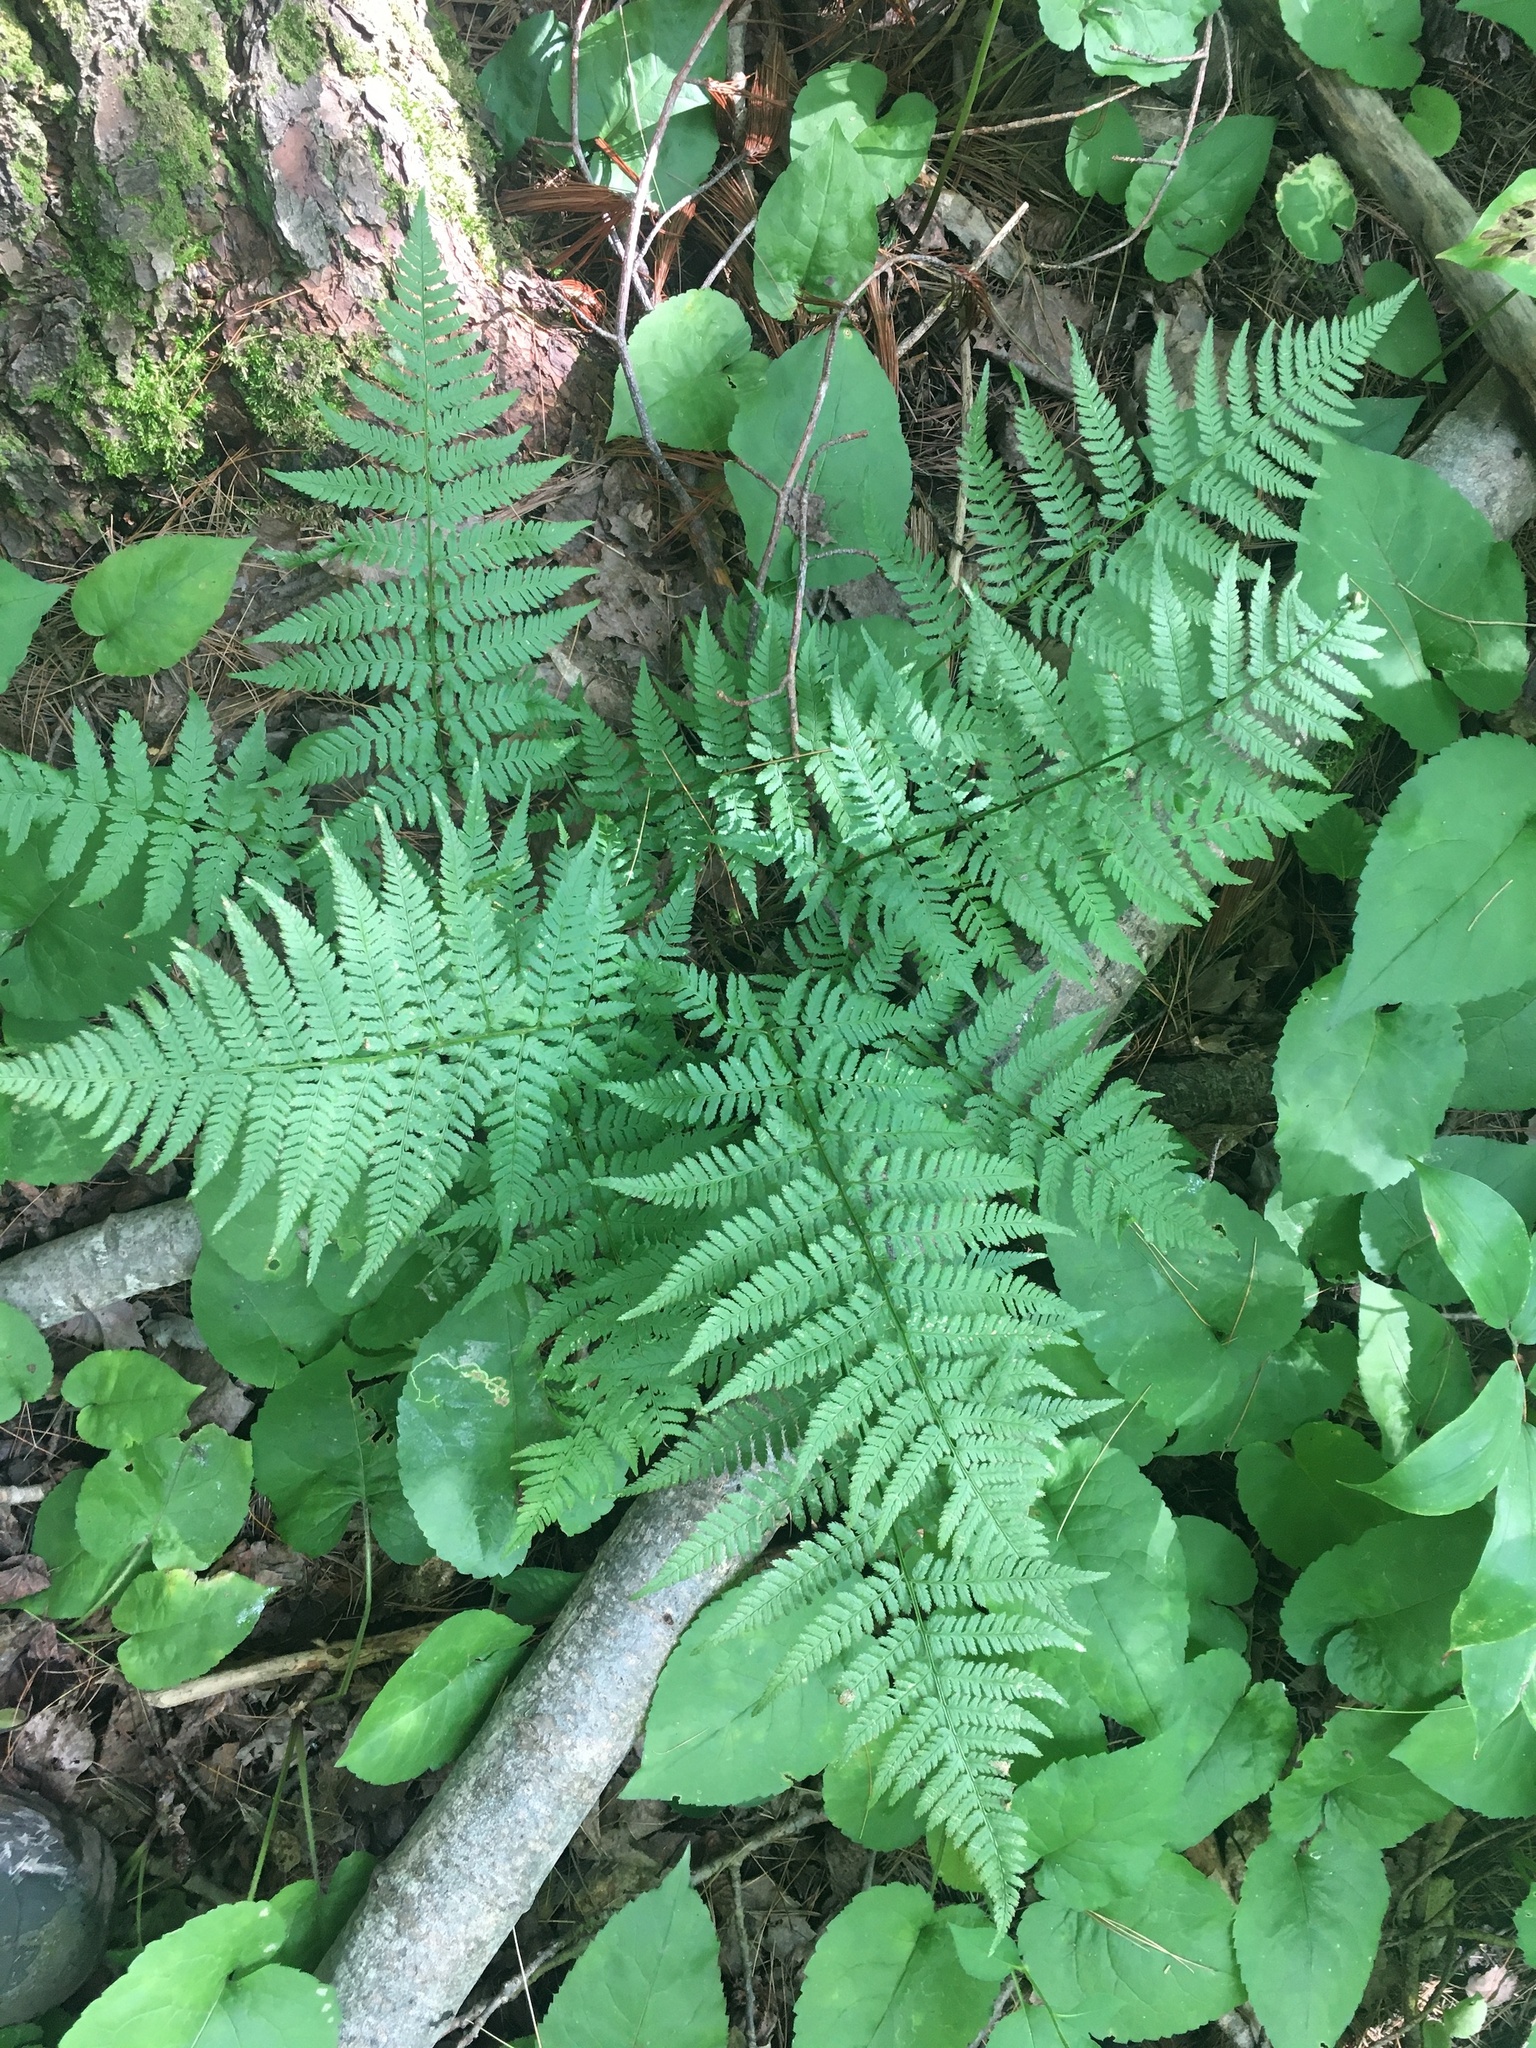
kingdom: Plantae
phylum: Tracheophyta
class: Polypodiopsida
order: Polypodiales
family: Dryopteridaceae
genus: Dryopteris
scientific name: Dryopteris carthusiana
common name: Narrow buckler-fern
